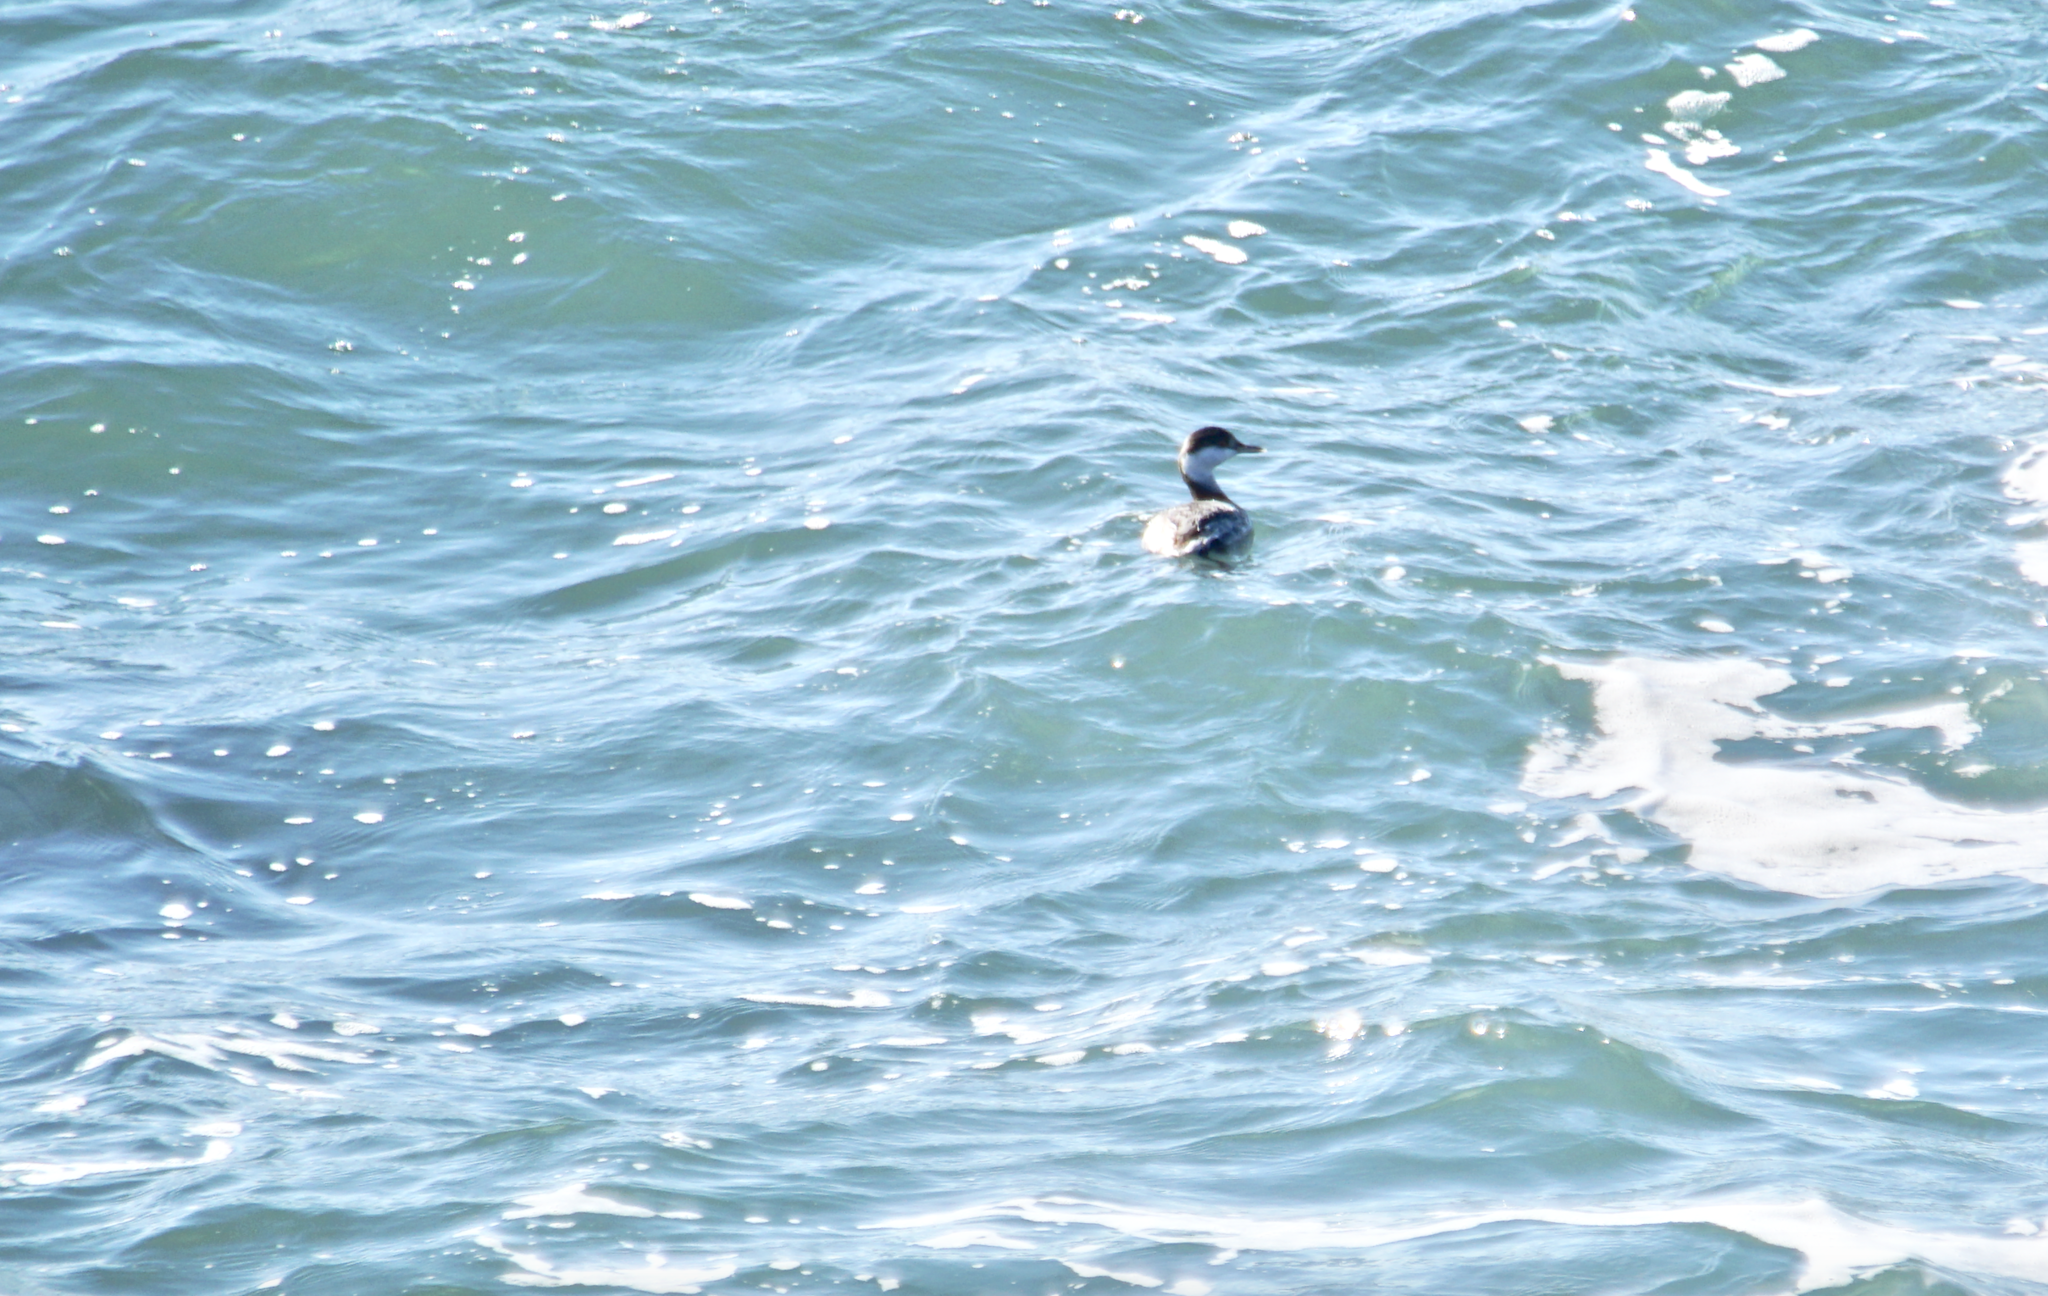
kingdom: Animalia
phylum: Chordata
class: Aves
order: Podicipediformes
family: Podicipedidae
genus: Podiceps
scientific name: Podiceps auritus
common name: Horned grebe
